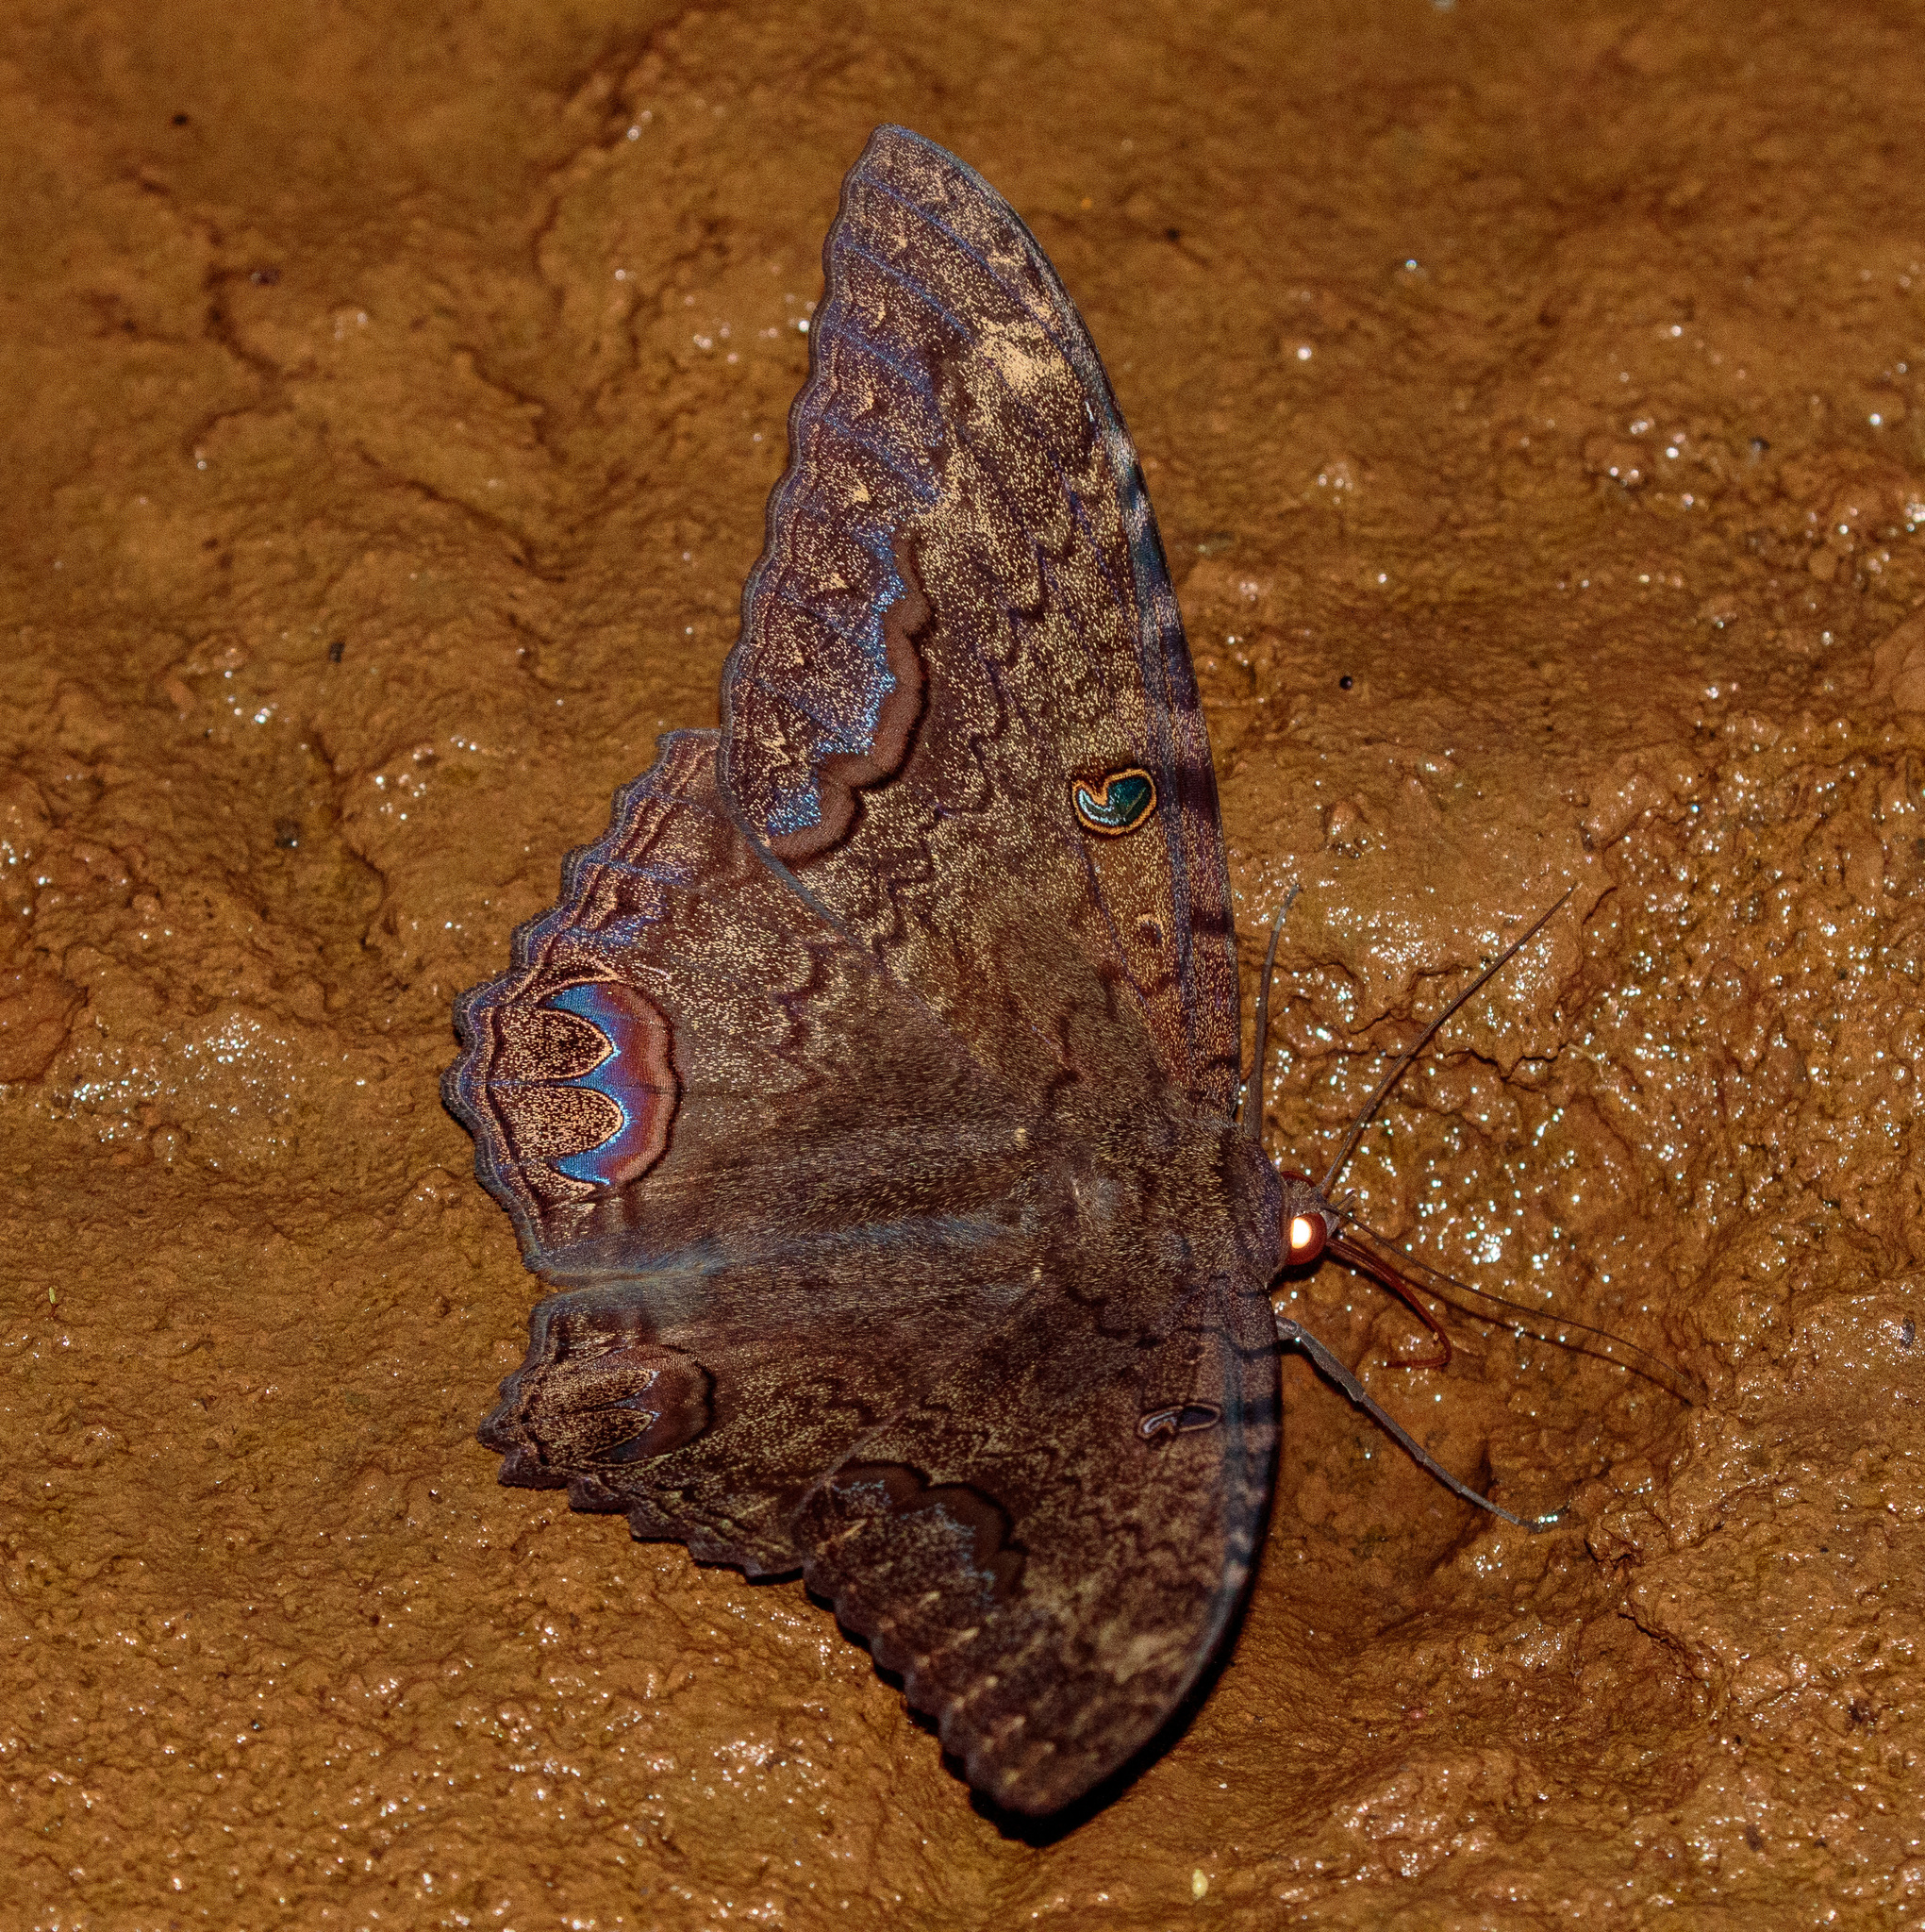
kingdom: Animalia
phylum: Arthropoda
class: Insecta
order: Lepidoptera
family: Erebidae
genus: Ascalapha
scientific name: Ascalapha odorata
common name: Black witch
